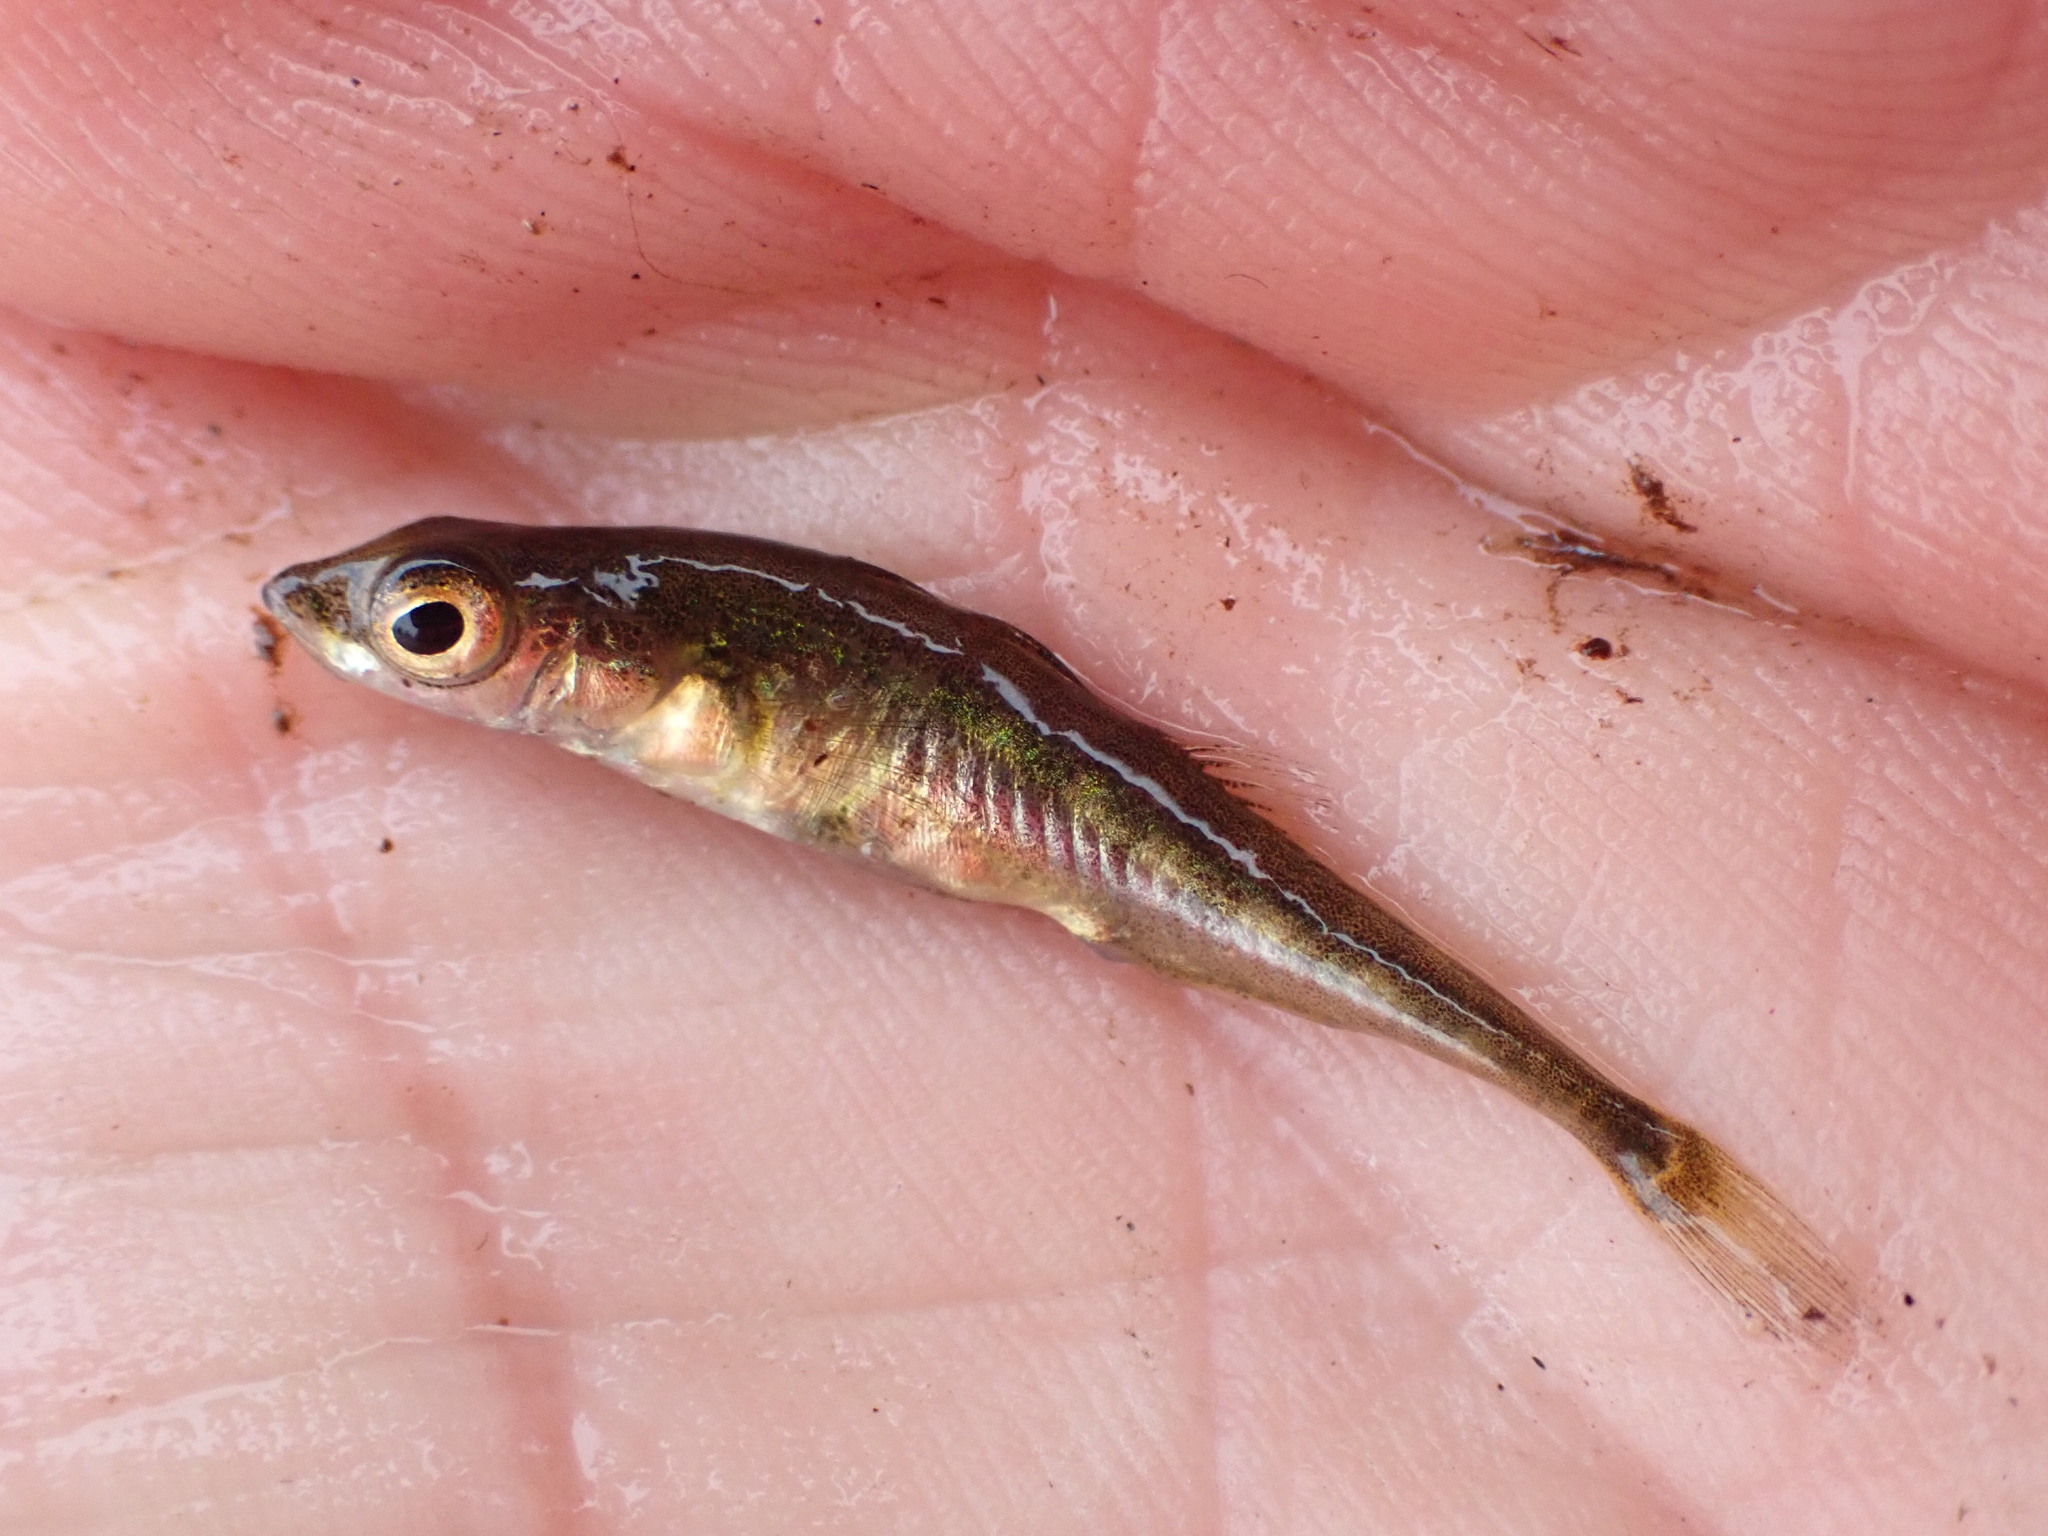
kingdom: Animalia
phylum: Chordata
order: Gasterosteiformes
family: Gasterosteidae
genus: Gasterosteus
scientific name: Gasterosteus aculeatus
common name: Three-spined stickleback
